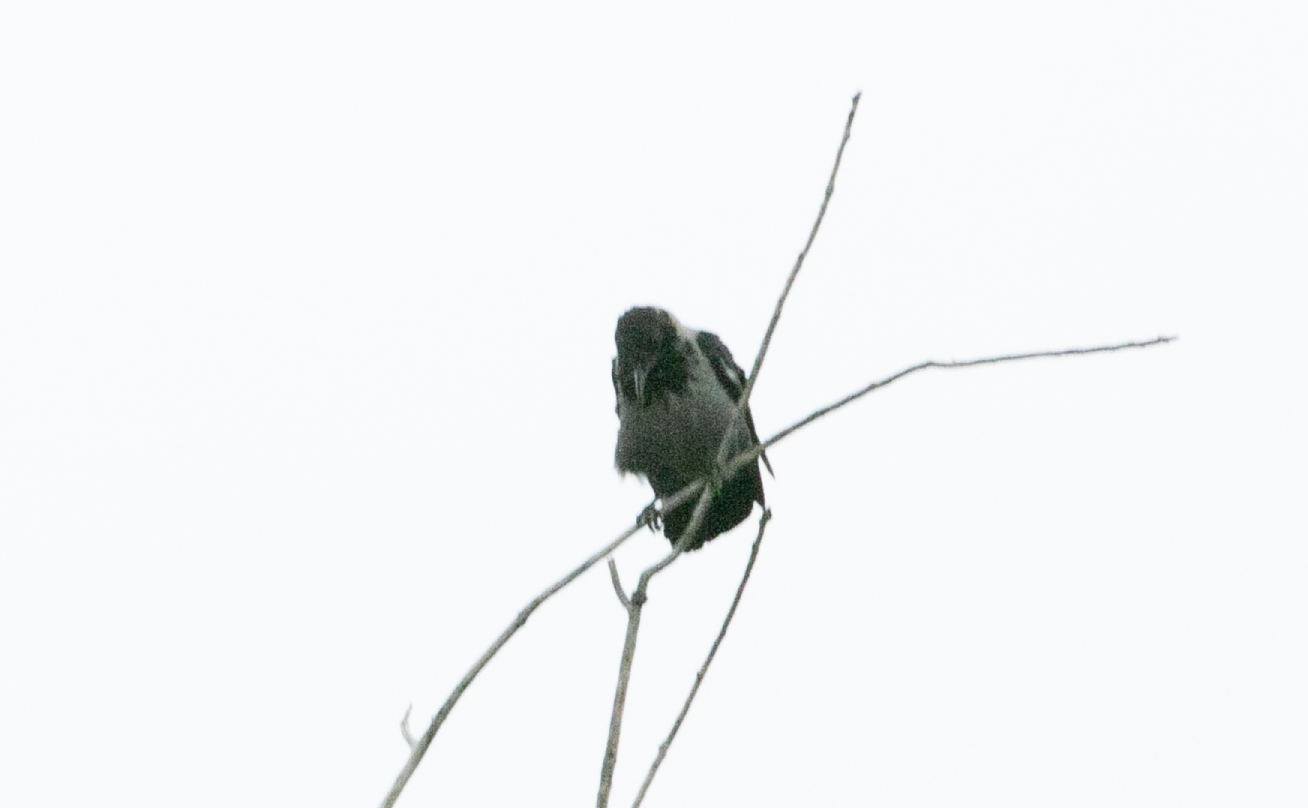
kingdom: Animalia
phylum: Chordata
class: Aves
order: Passeriformes
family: Corvidae
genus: Corvus
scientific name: Corvus cornix
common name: Hooded crow
